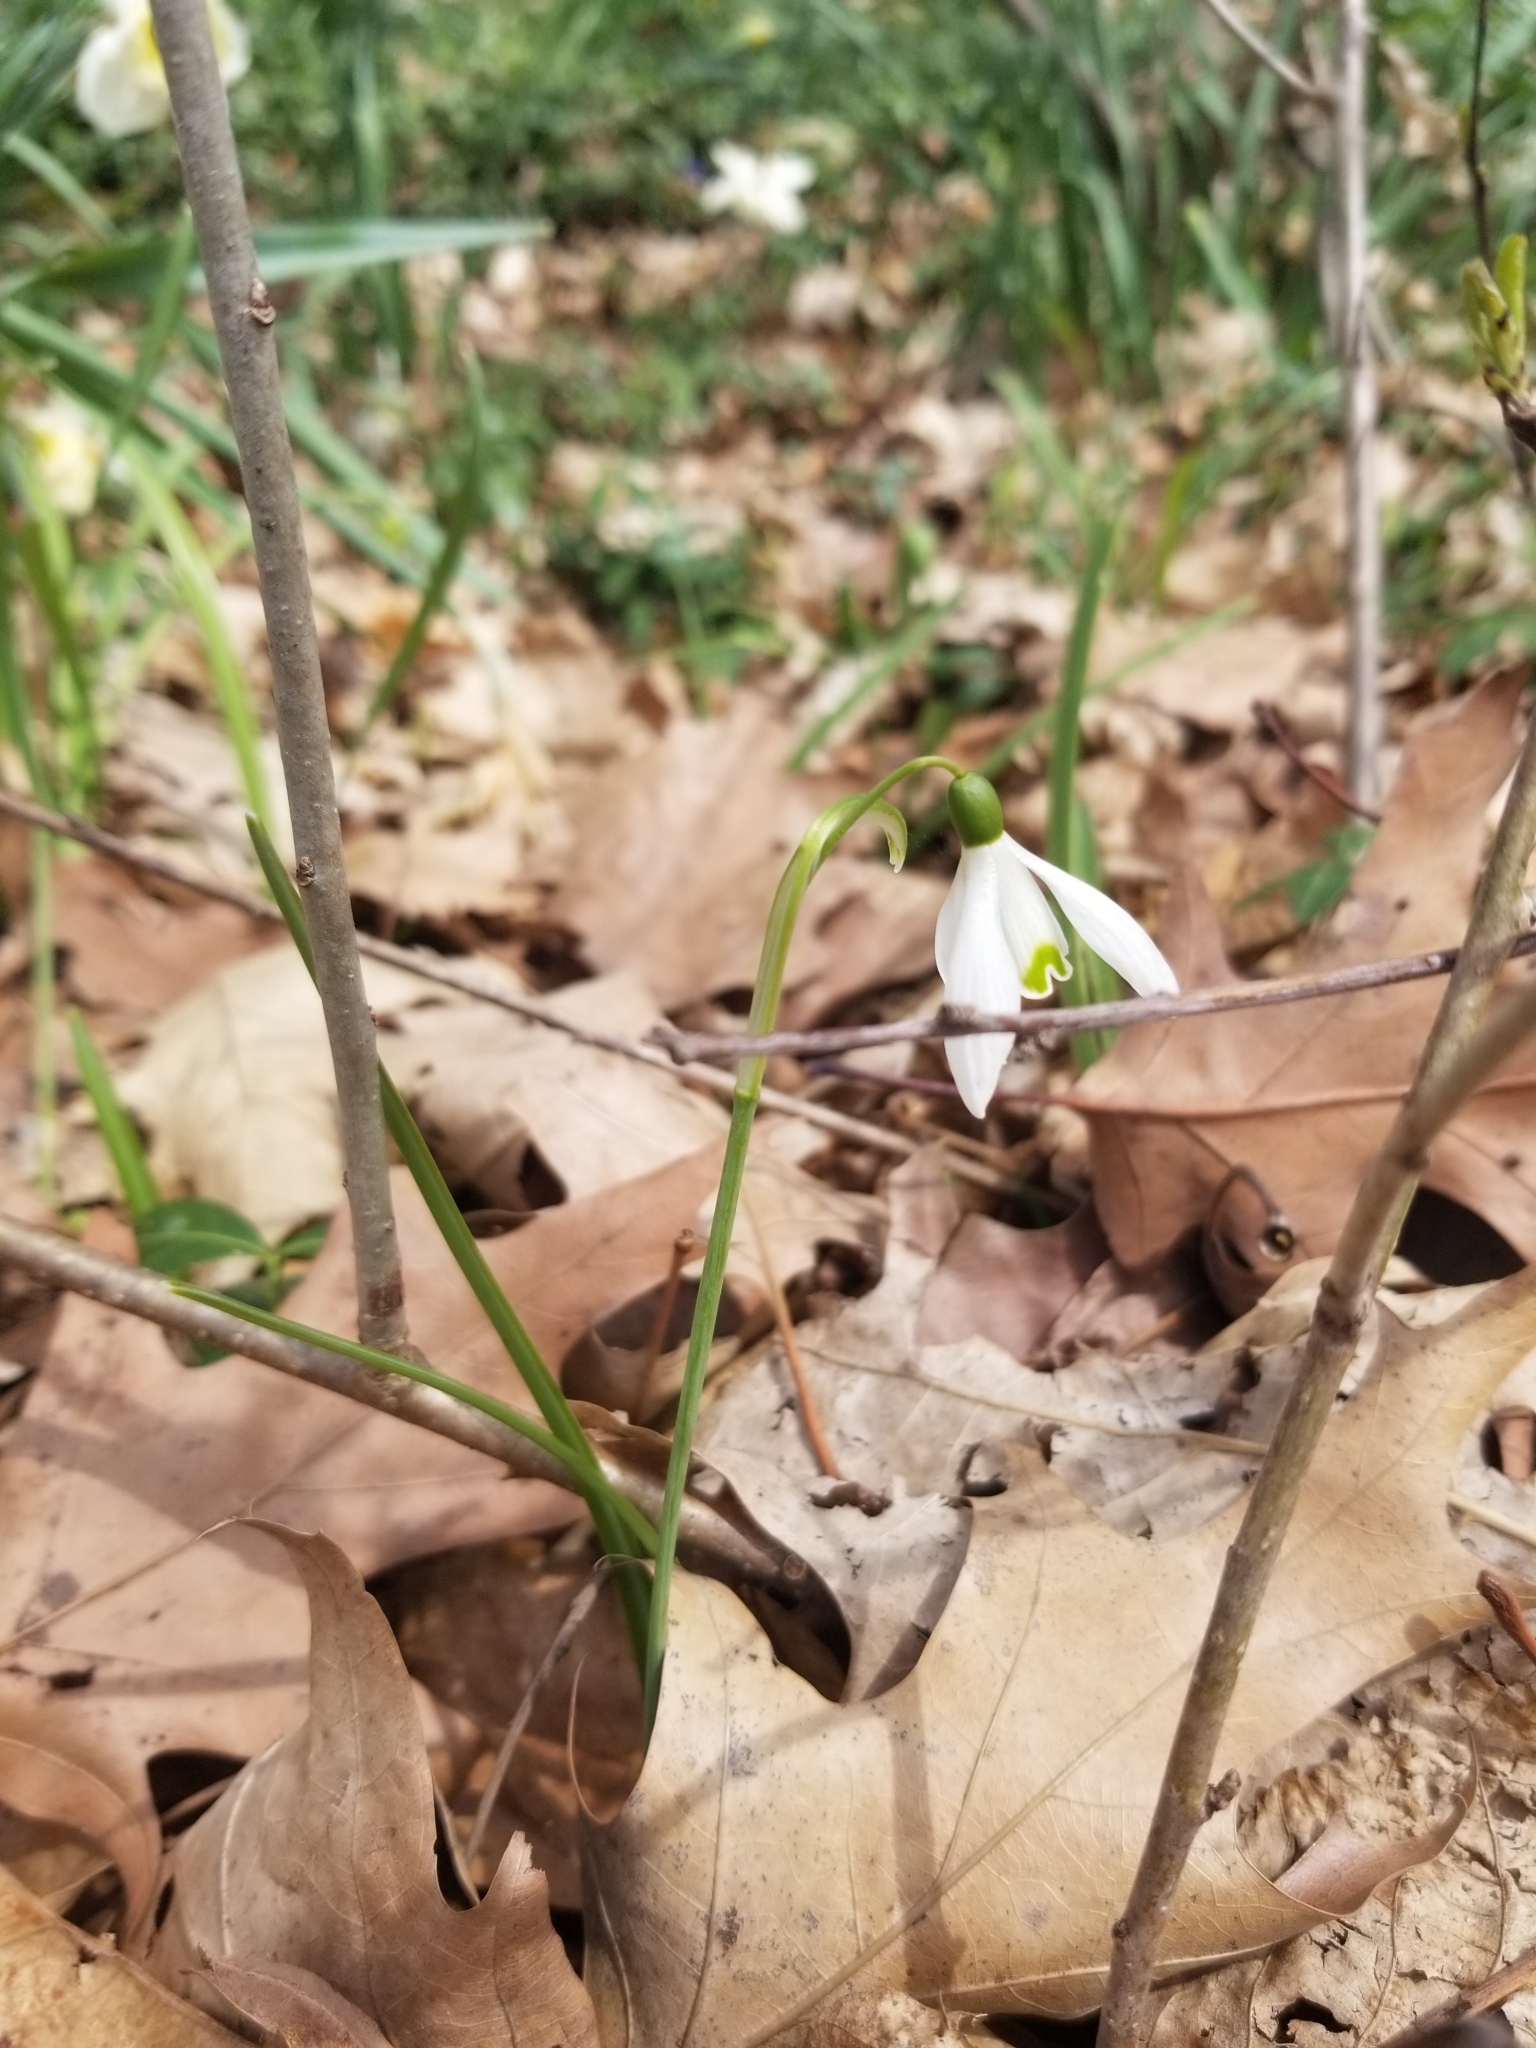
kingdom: Plantae
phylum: Tracheophyta
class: Liliopsida
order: Asparagales
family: Amaryllidaceae
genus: Galanthus
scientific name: Galanthus nivalis
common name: Snowdrop
